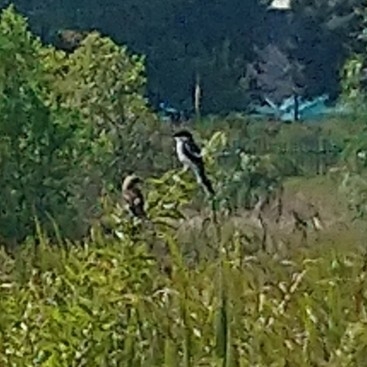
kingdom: Animalia
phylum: Chordata
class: Aves
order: Passeriformes
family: Laniidae
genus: Lanius
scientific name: Lanius collaris
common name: Southern fiscal
